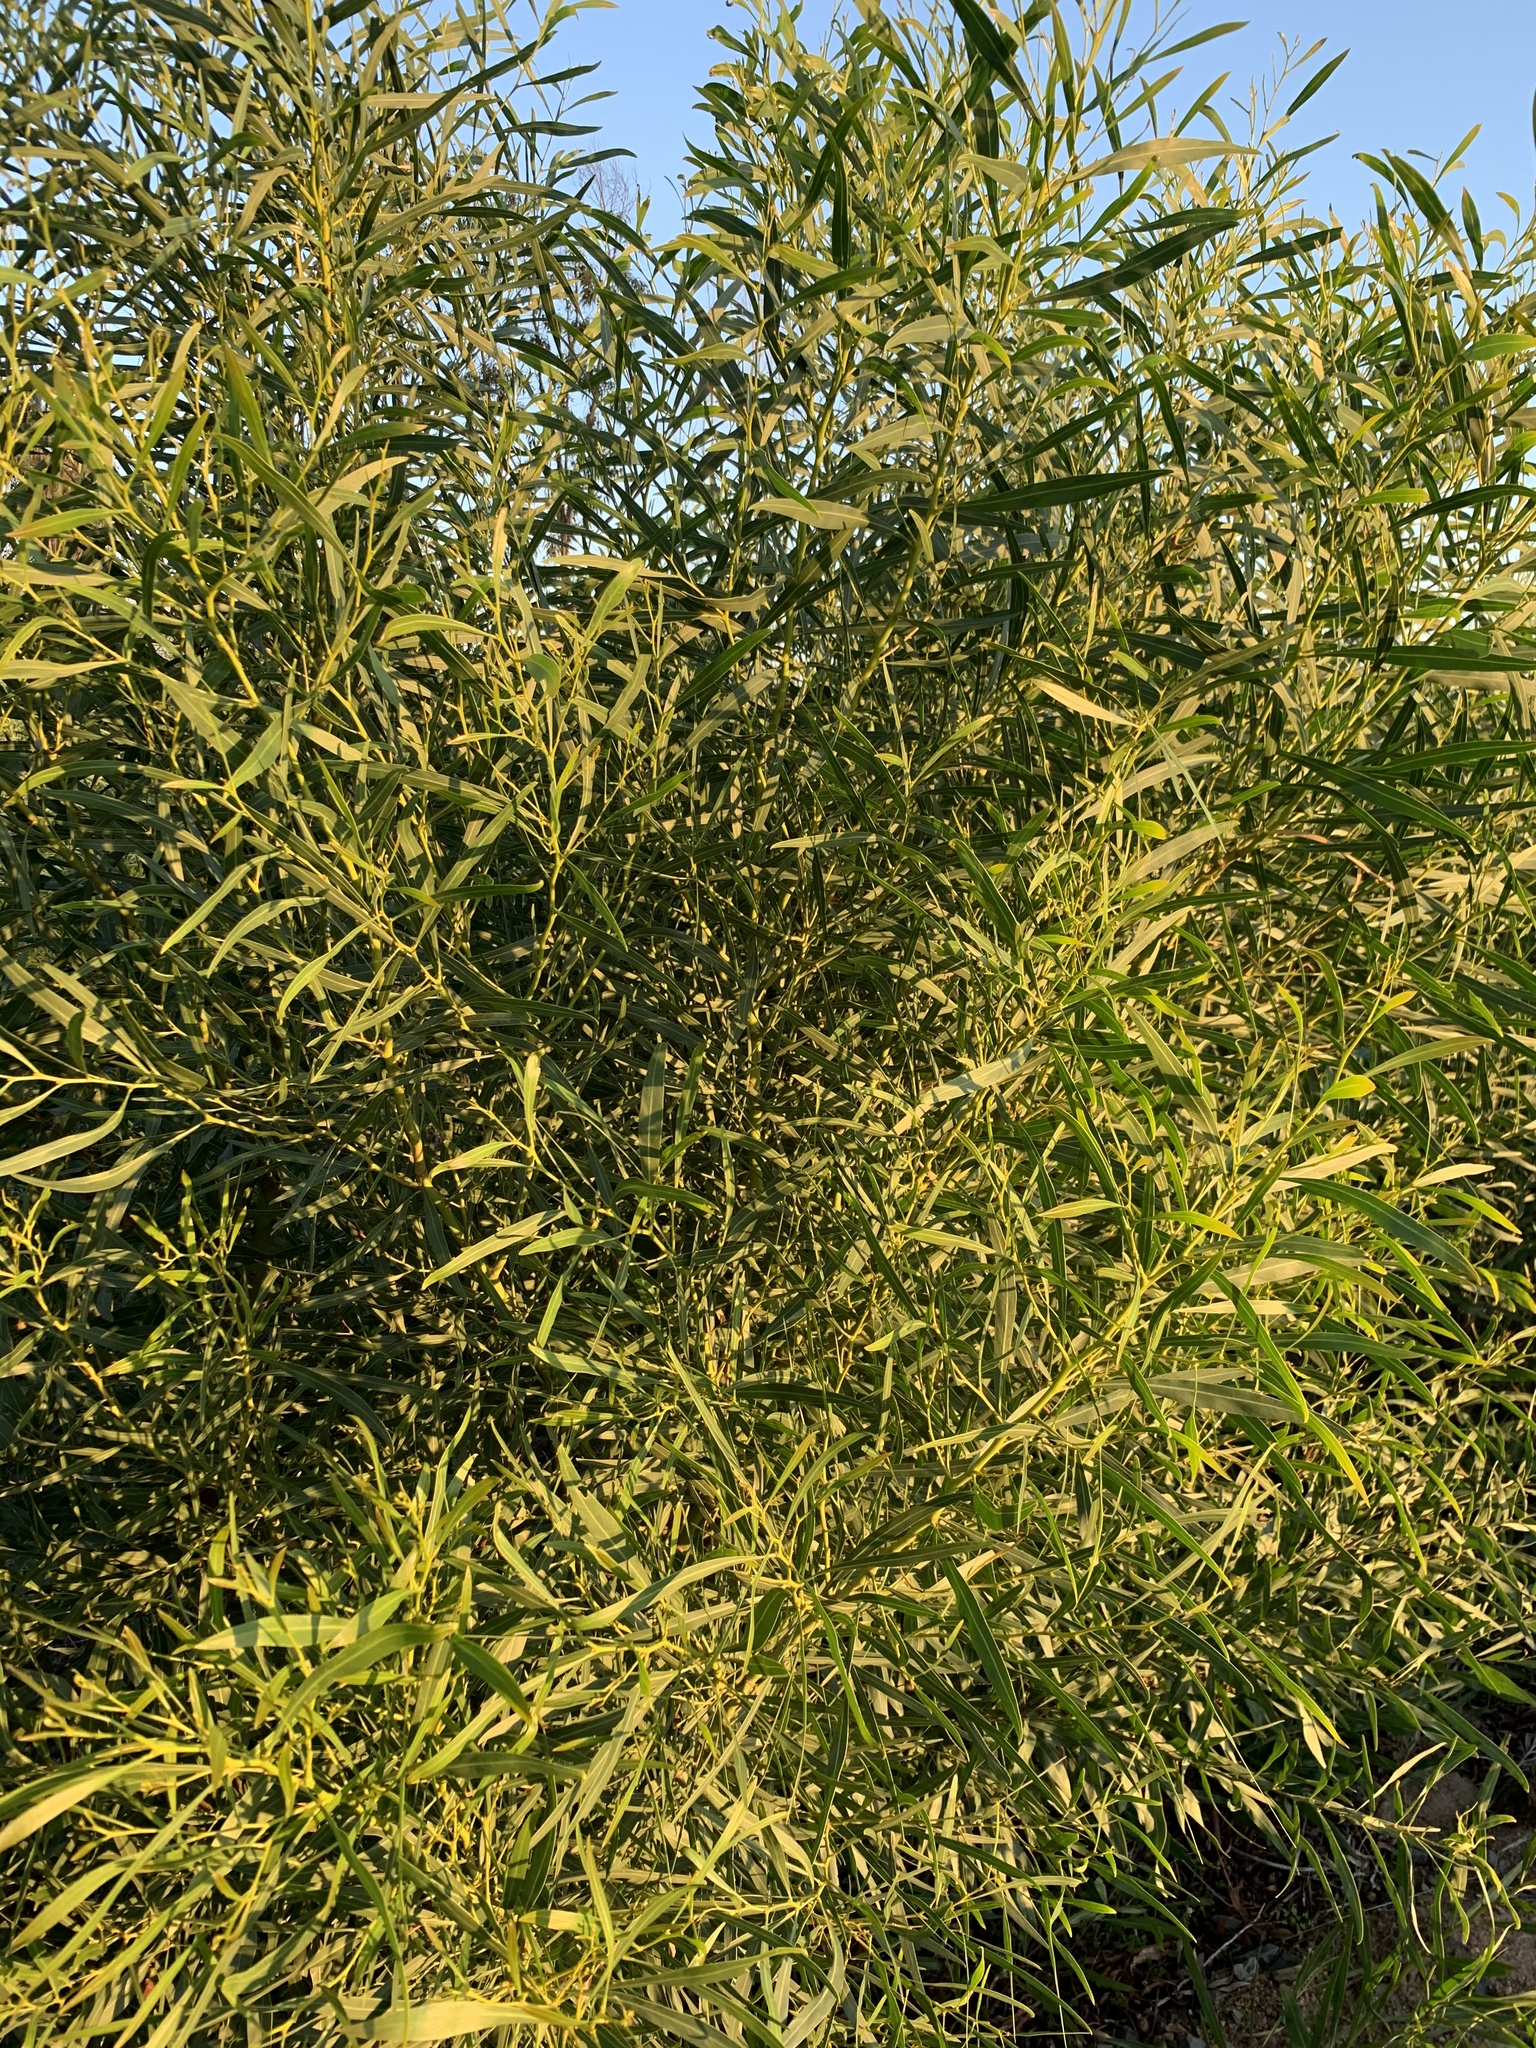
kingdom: Plantae
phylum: Tracheophyta
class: Magnoliopsida
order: Fabales
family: Fabaceae
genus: Acacia
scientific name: Acacia saligna
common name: Orange wattle
